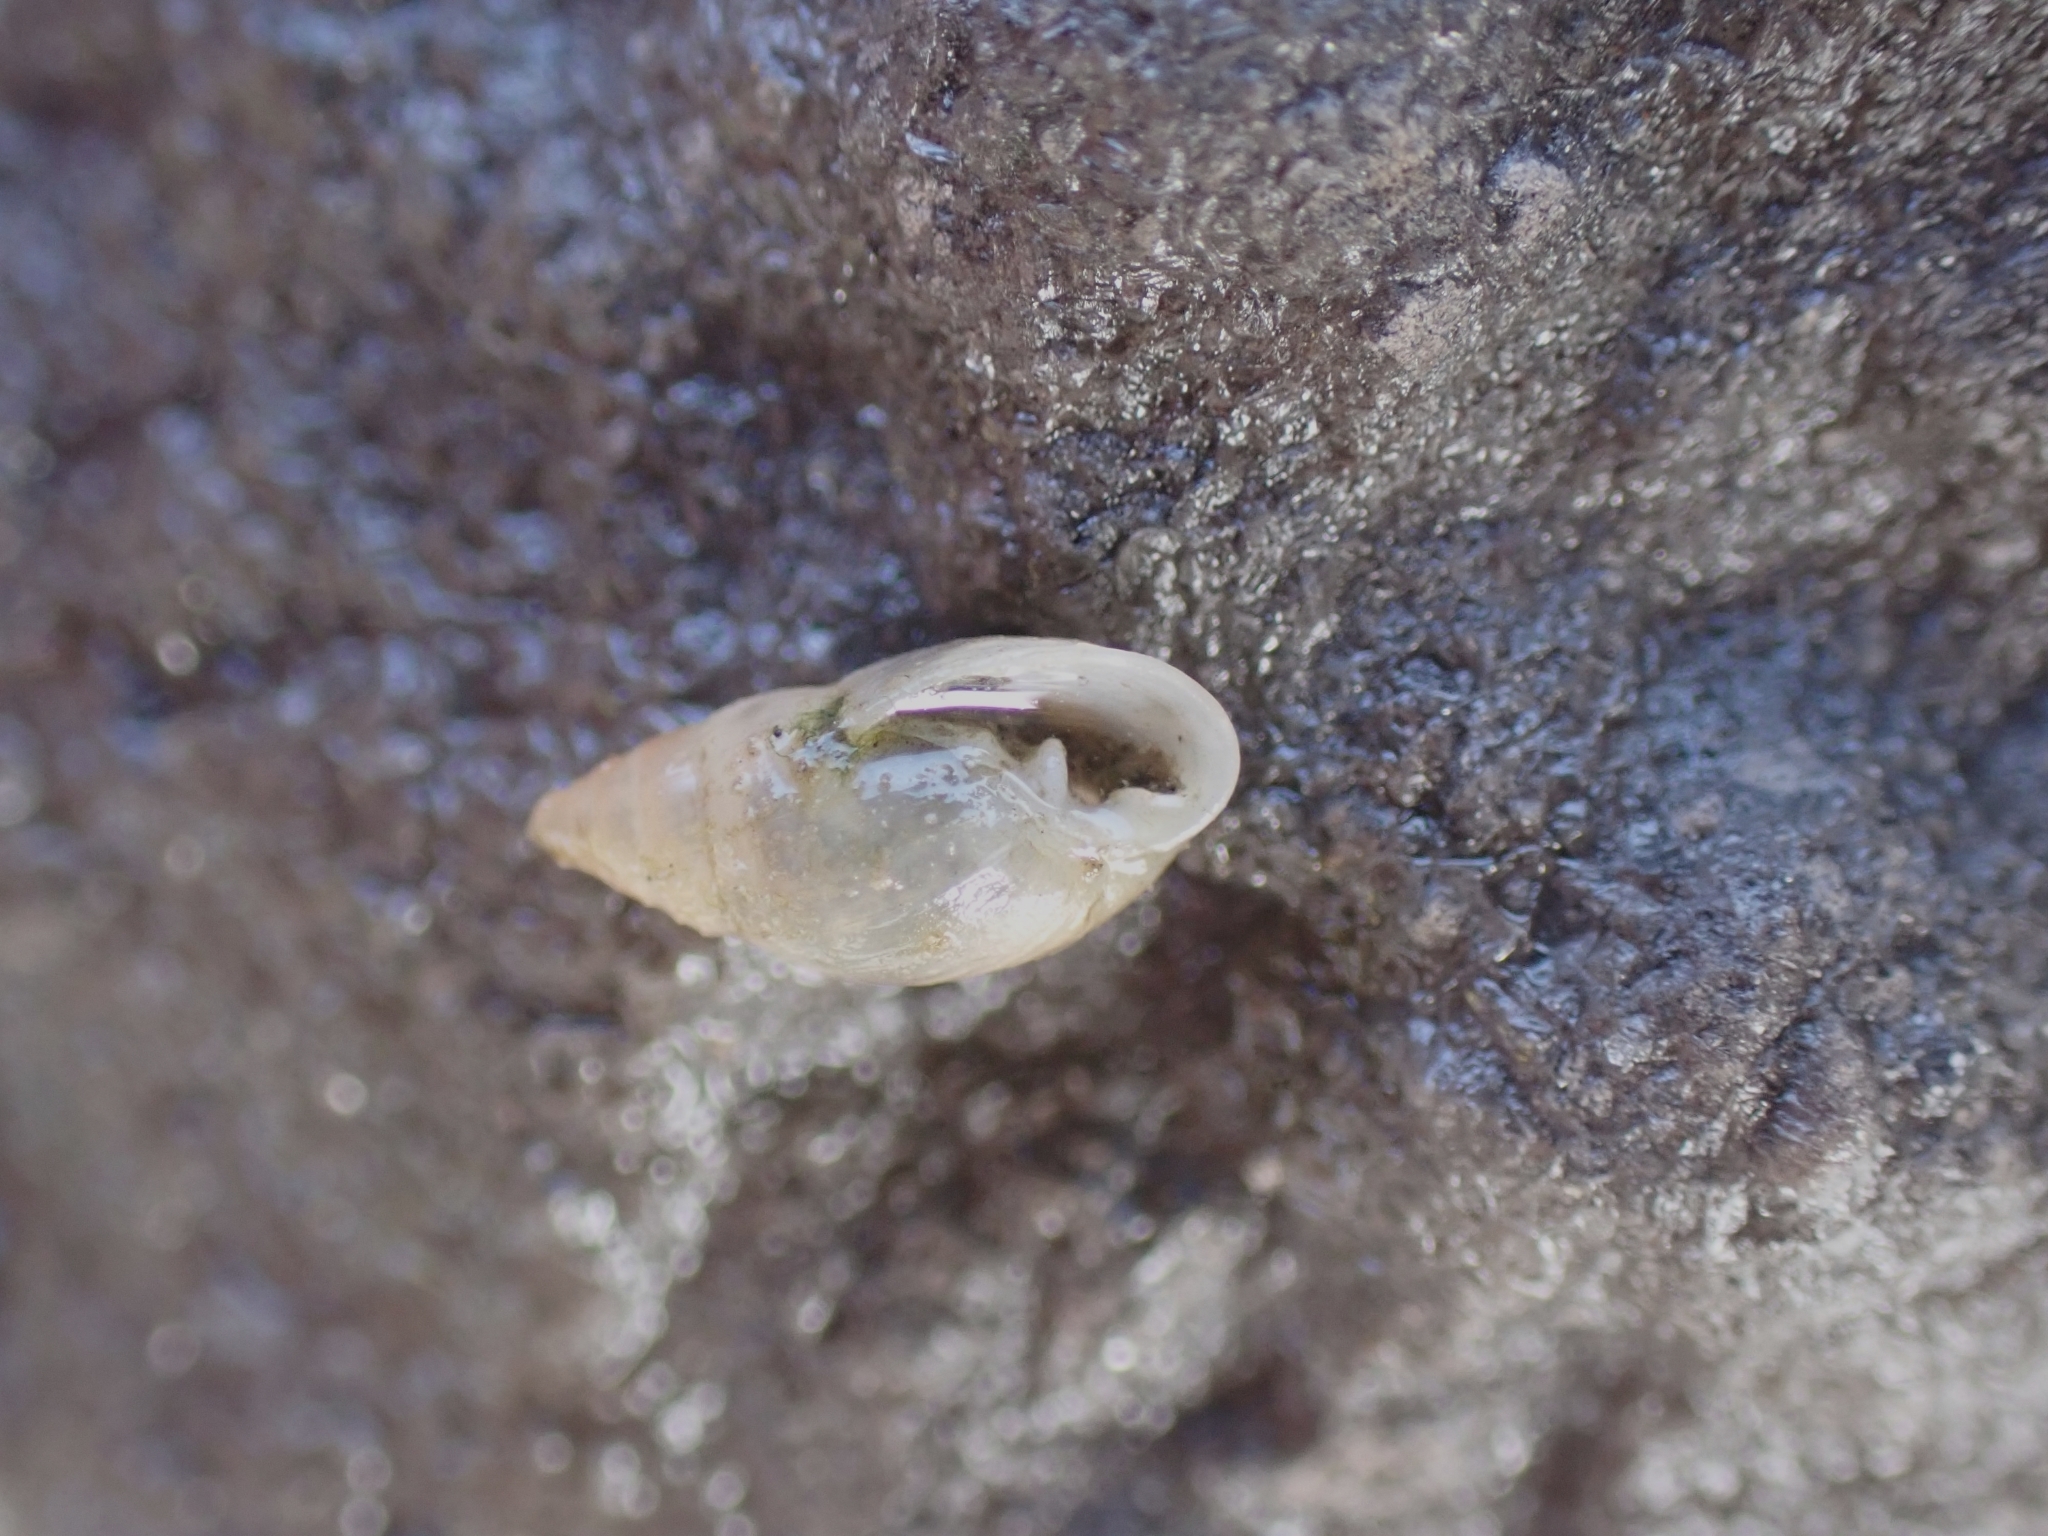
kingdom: Animalia
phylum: Mollusca
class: Gastropoda
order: Ellobiida
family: Ellobiidae
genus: Myosotella
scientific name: Myosotella myosotis
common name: Mouse-eared snail
